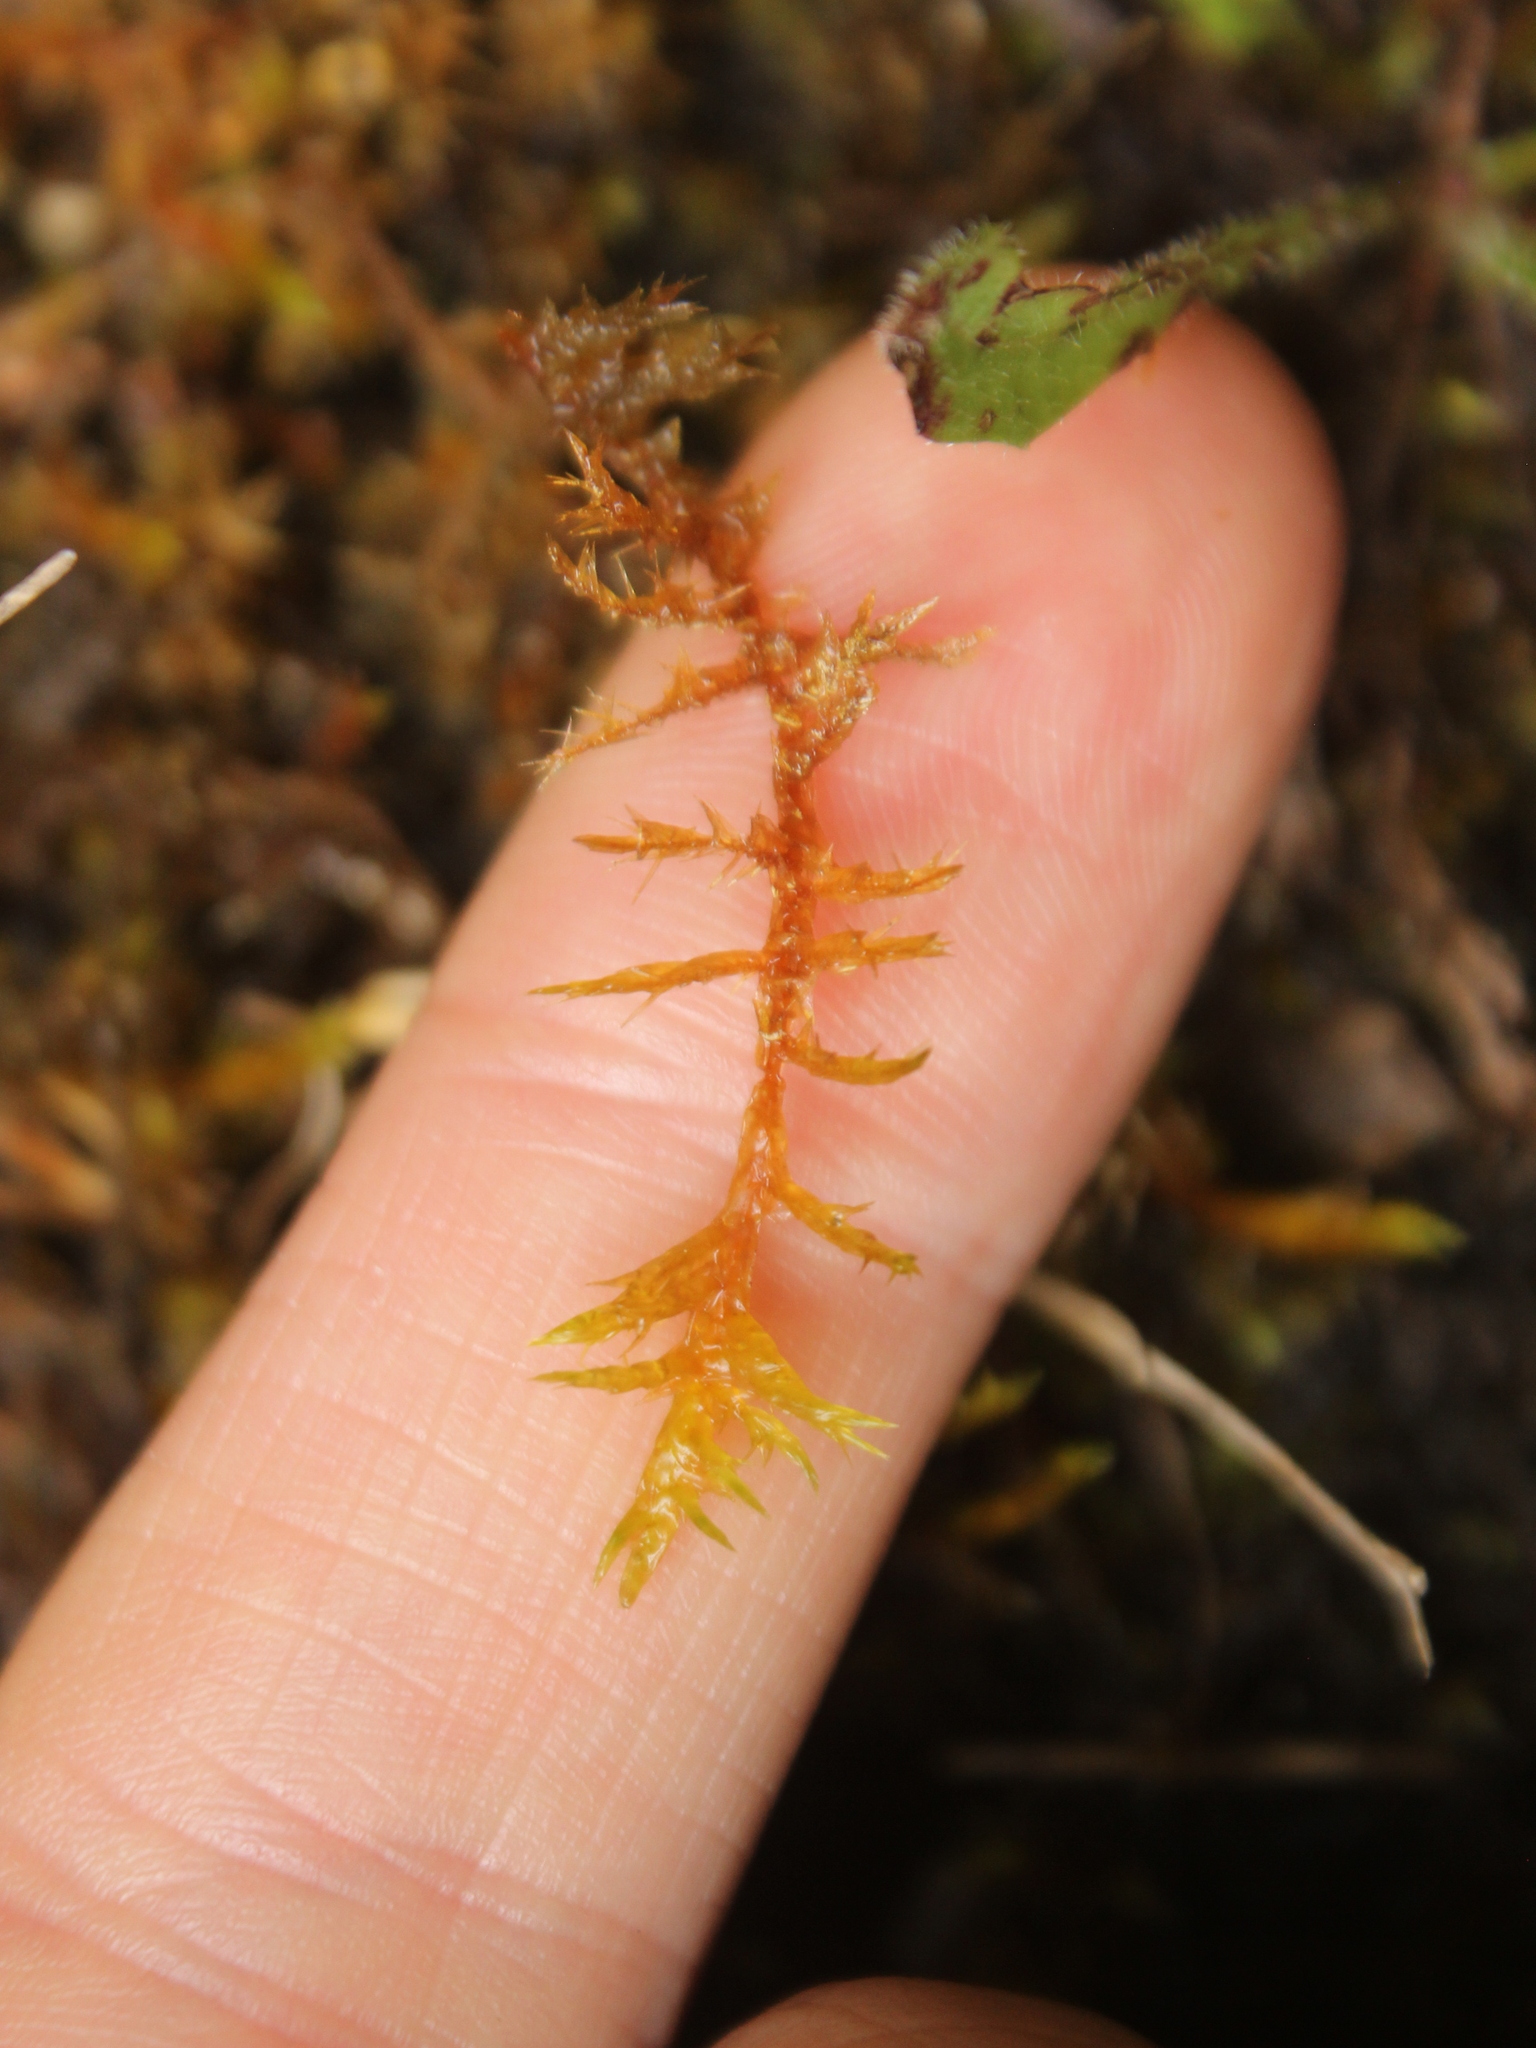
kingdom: Plantae
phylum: Bryophyta
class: Bryopsida
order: Hypnales
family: Pylaisiaceae
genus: Calliergonella
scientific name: Calliergonella cuspidata
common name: Common large wetland moss
